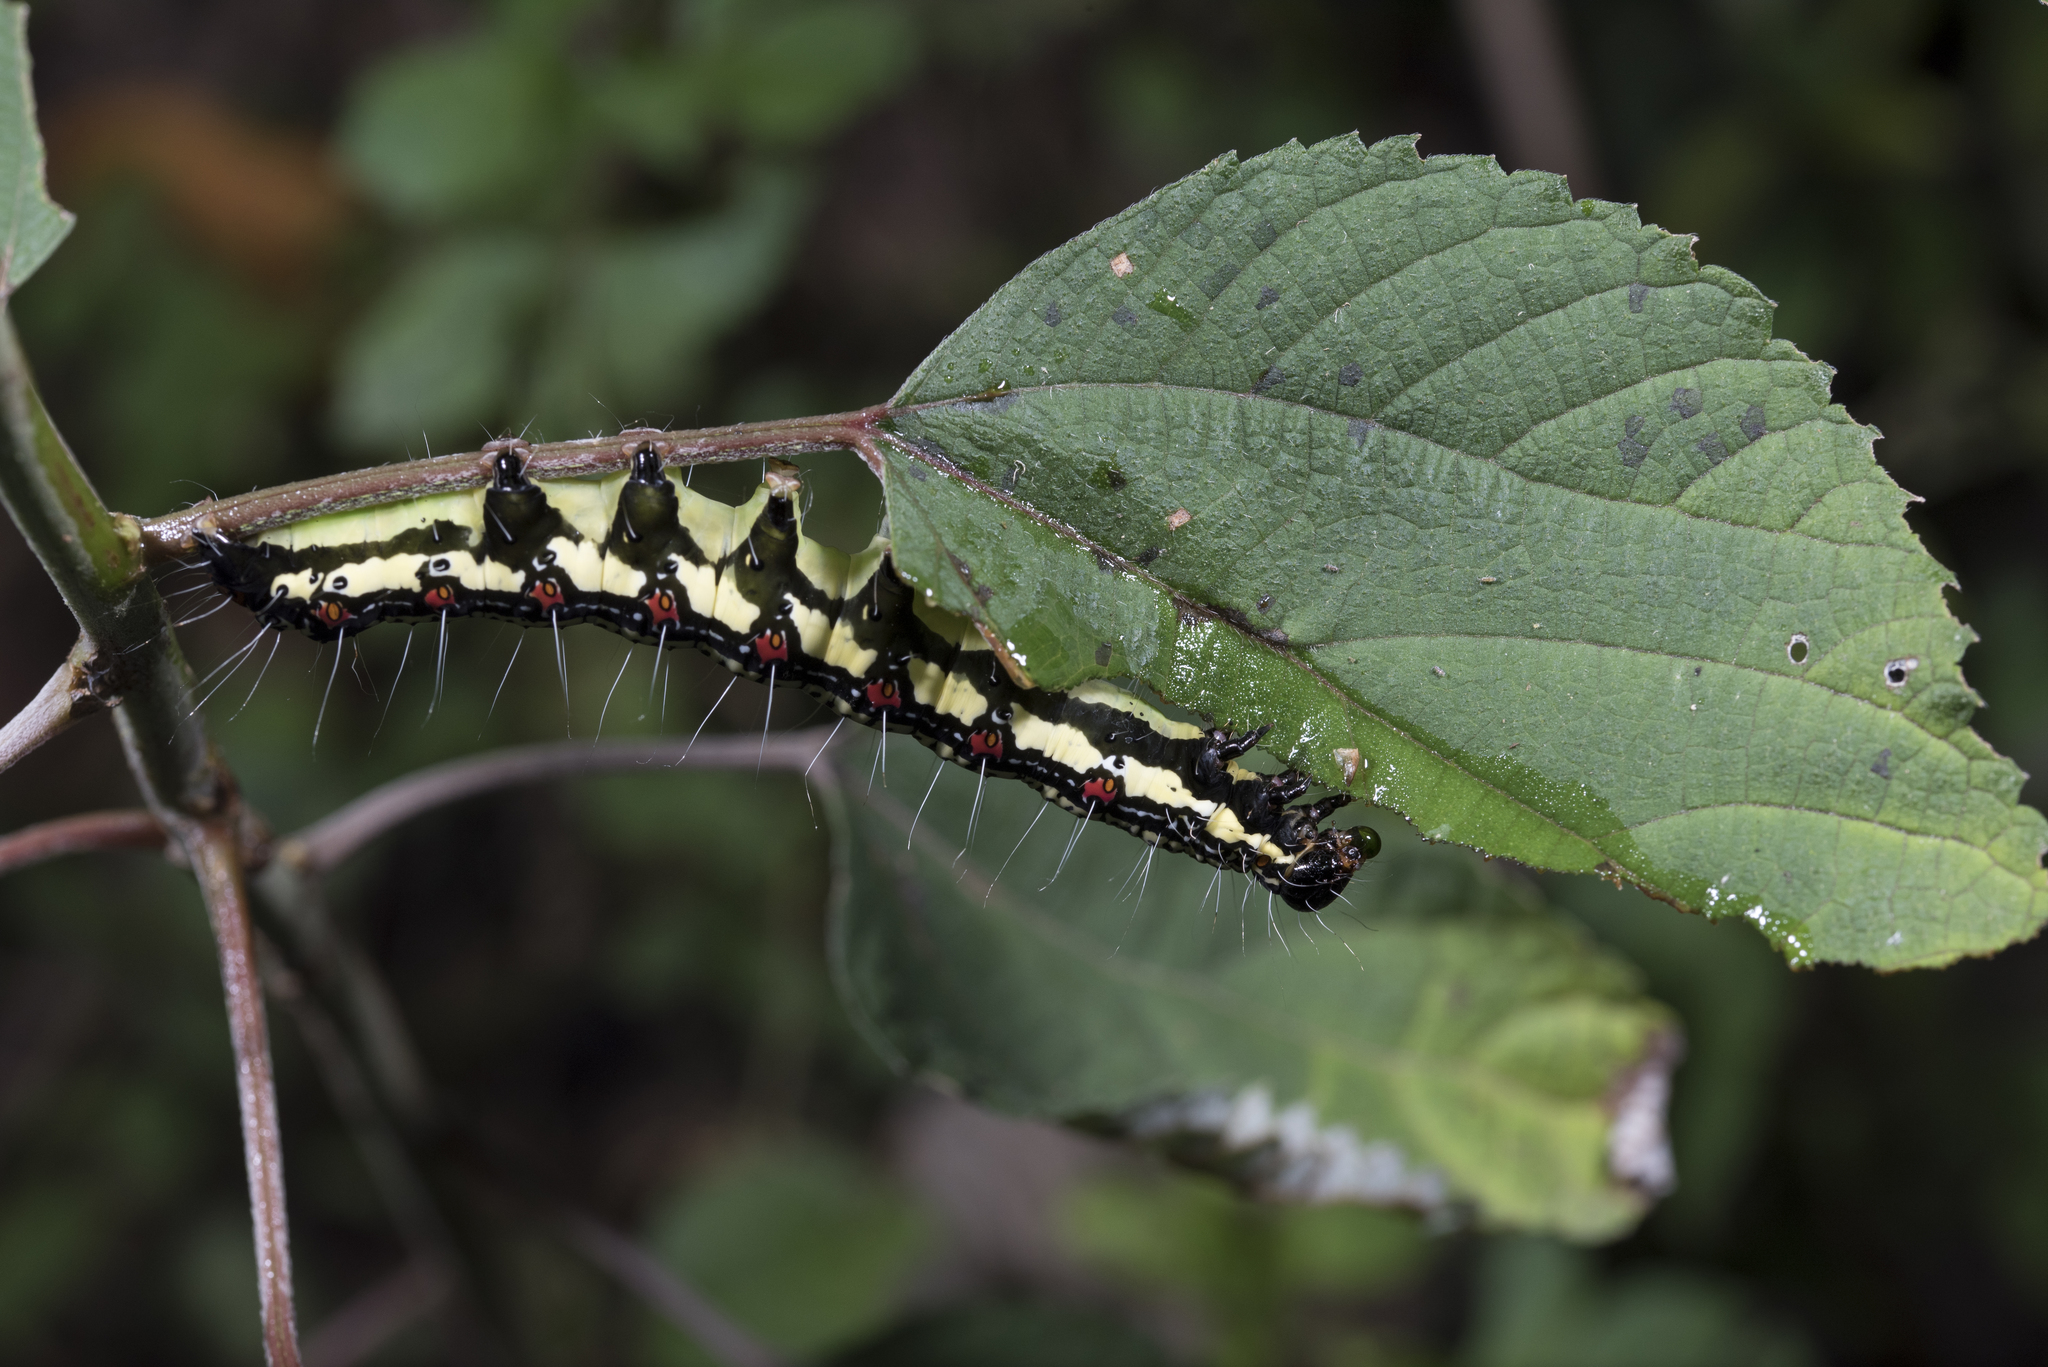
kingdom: Animalia
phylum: Arthropoda
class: Insecta
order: Lepidoptera
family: Erebidae
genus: Arcte
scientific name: Arcte coerula
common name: Ramie moth
